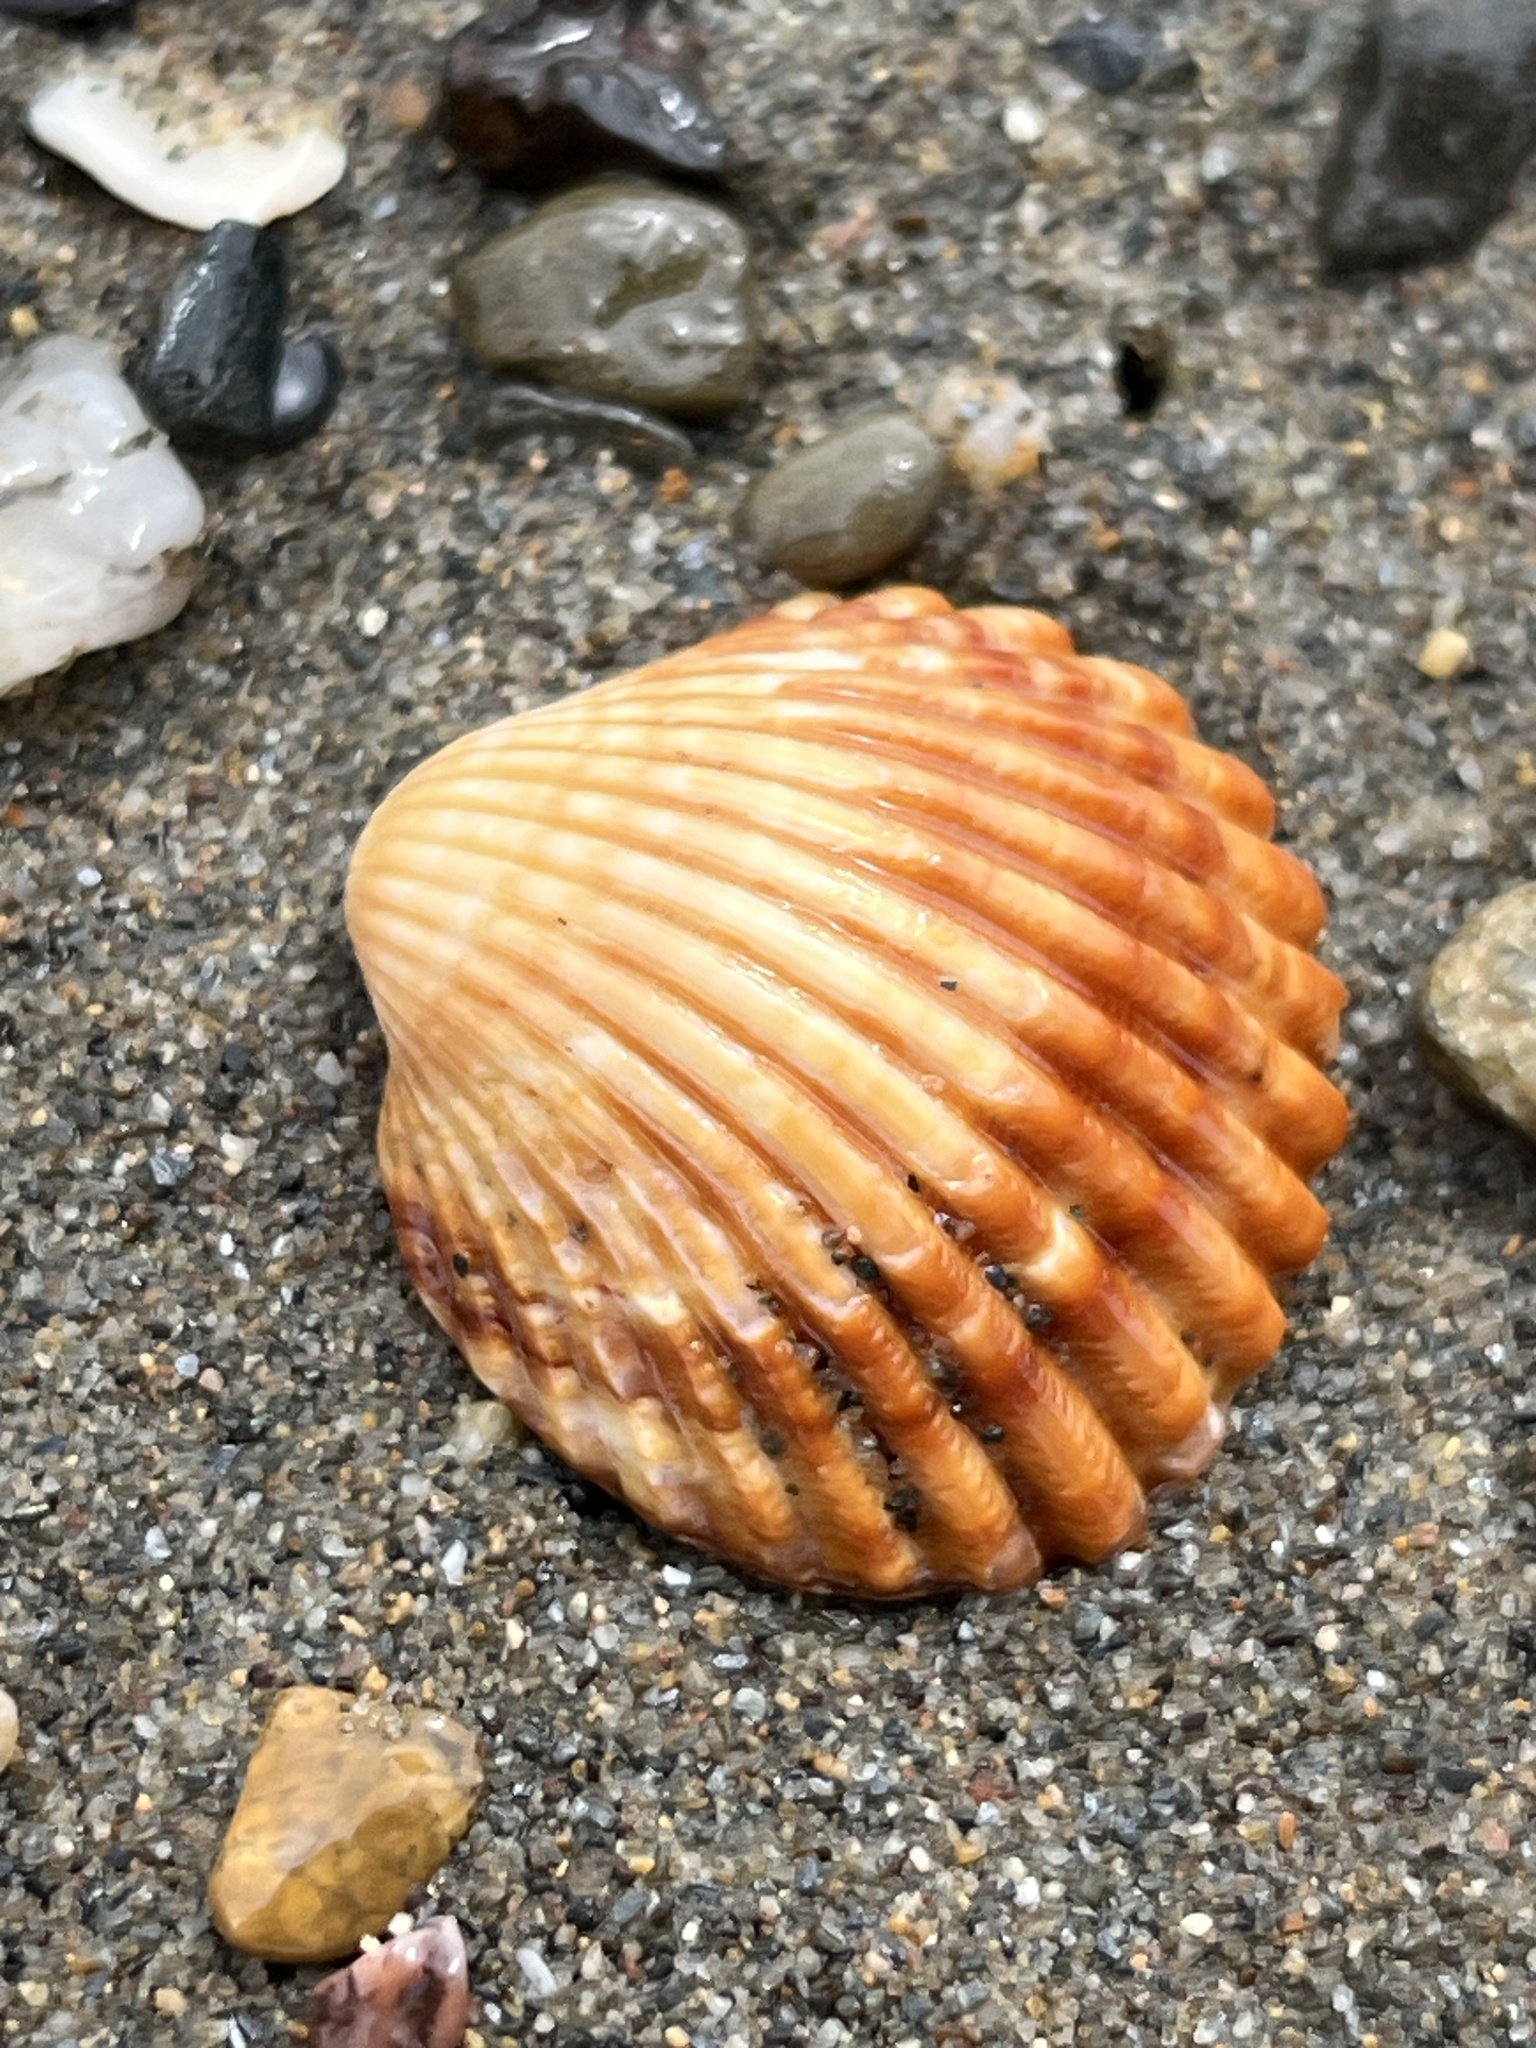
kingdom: Animalia
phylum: Mollusca
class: Bivalvia
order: Cardiida
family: Cardiidae
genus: Acanthocardia
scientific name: Acanthocardia tuberculata
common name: Rough cockle
